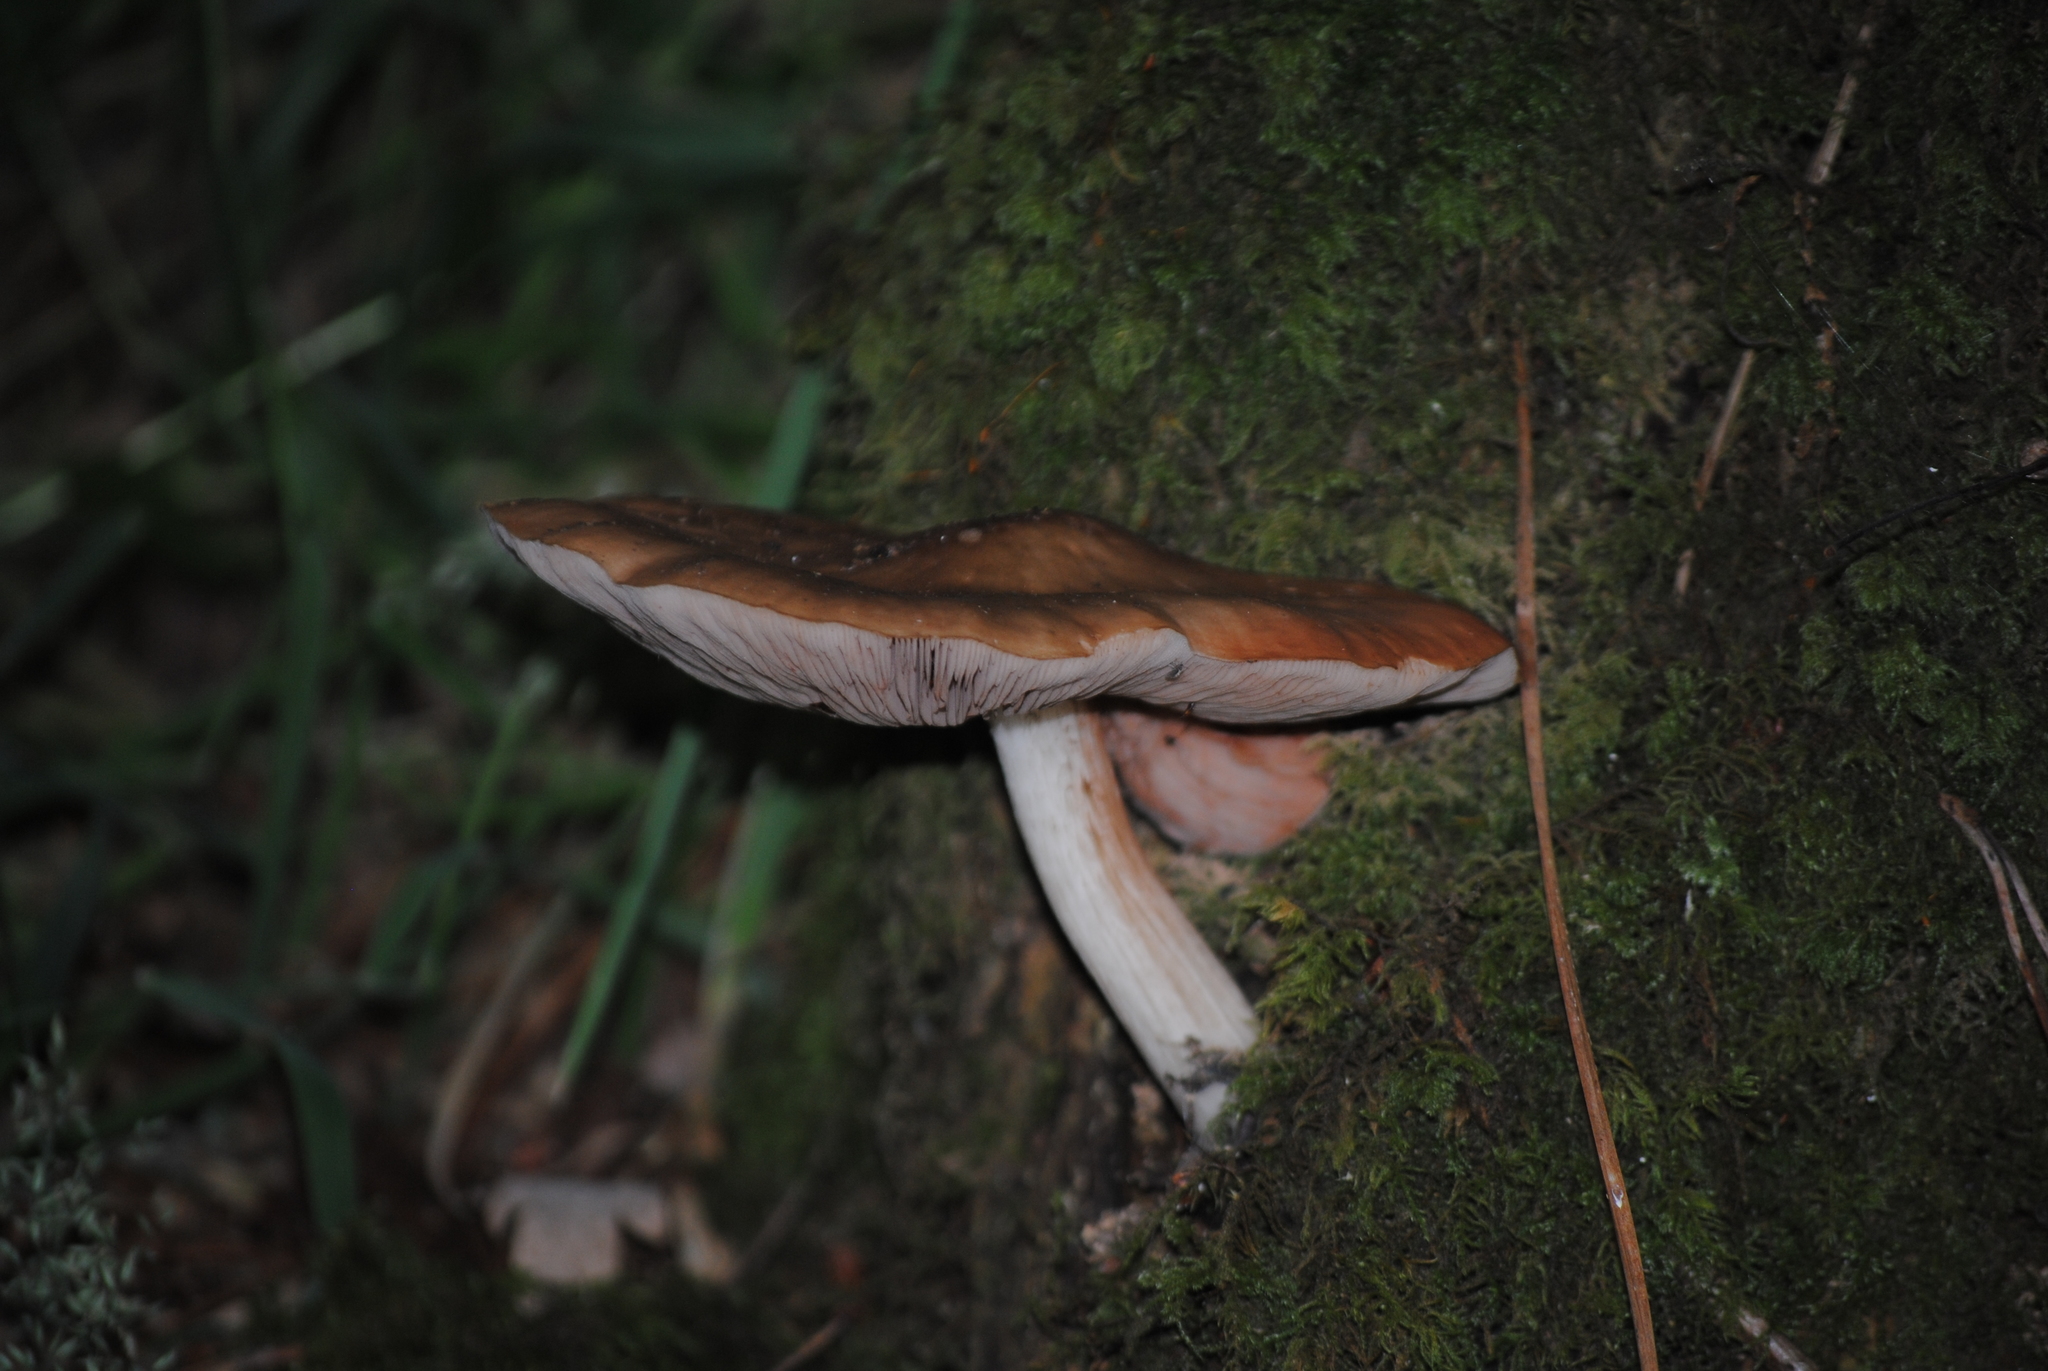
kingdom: Fungi
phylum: Basidiomycota
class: Agaricomycetes
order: Agaricales
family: Pluteaceae
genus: Pluteus
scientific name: Pluteus cervinus
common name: Deer shield
